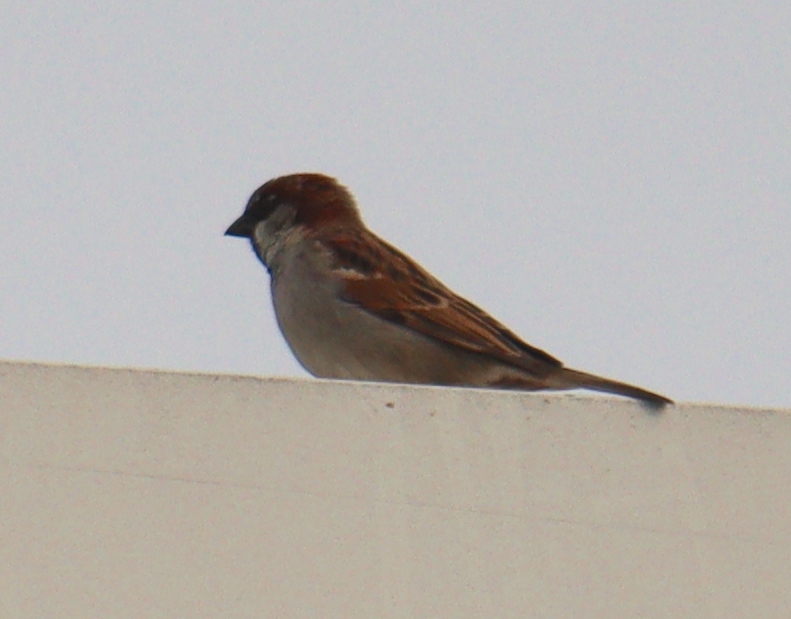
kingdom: Animalia
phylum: Chordata
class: Aves
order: Passeriformes
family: Passeridae
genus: Passer
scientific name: Passer domesticus
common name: House sparrow
